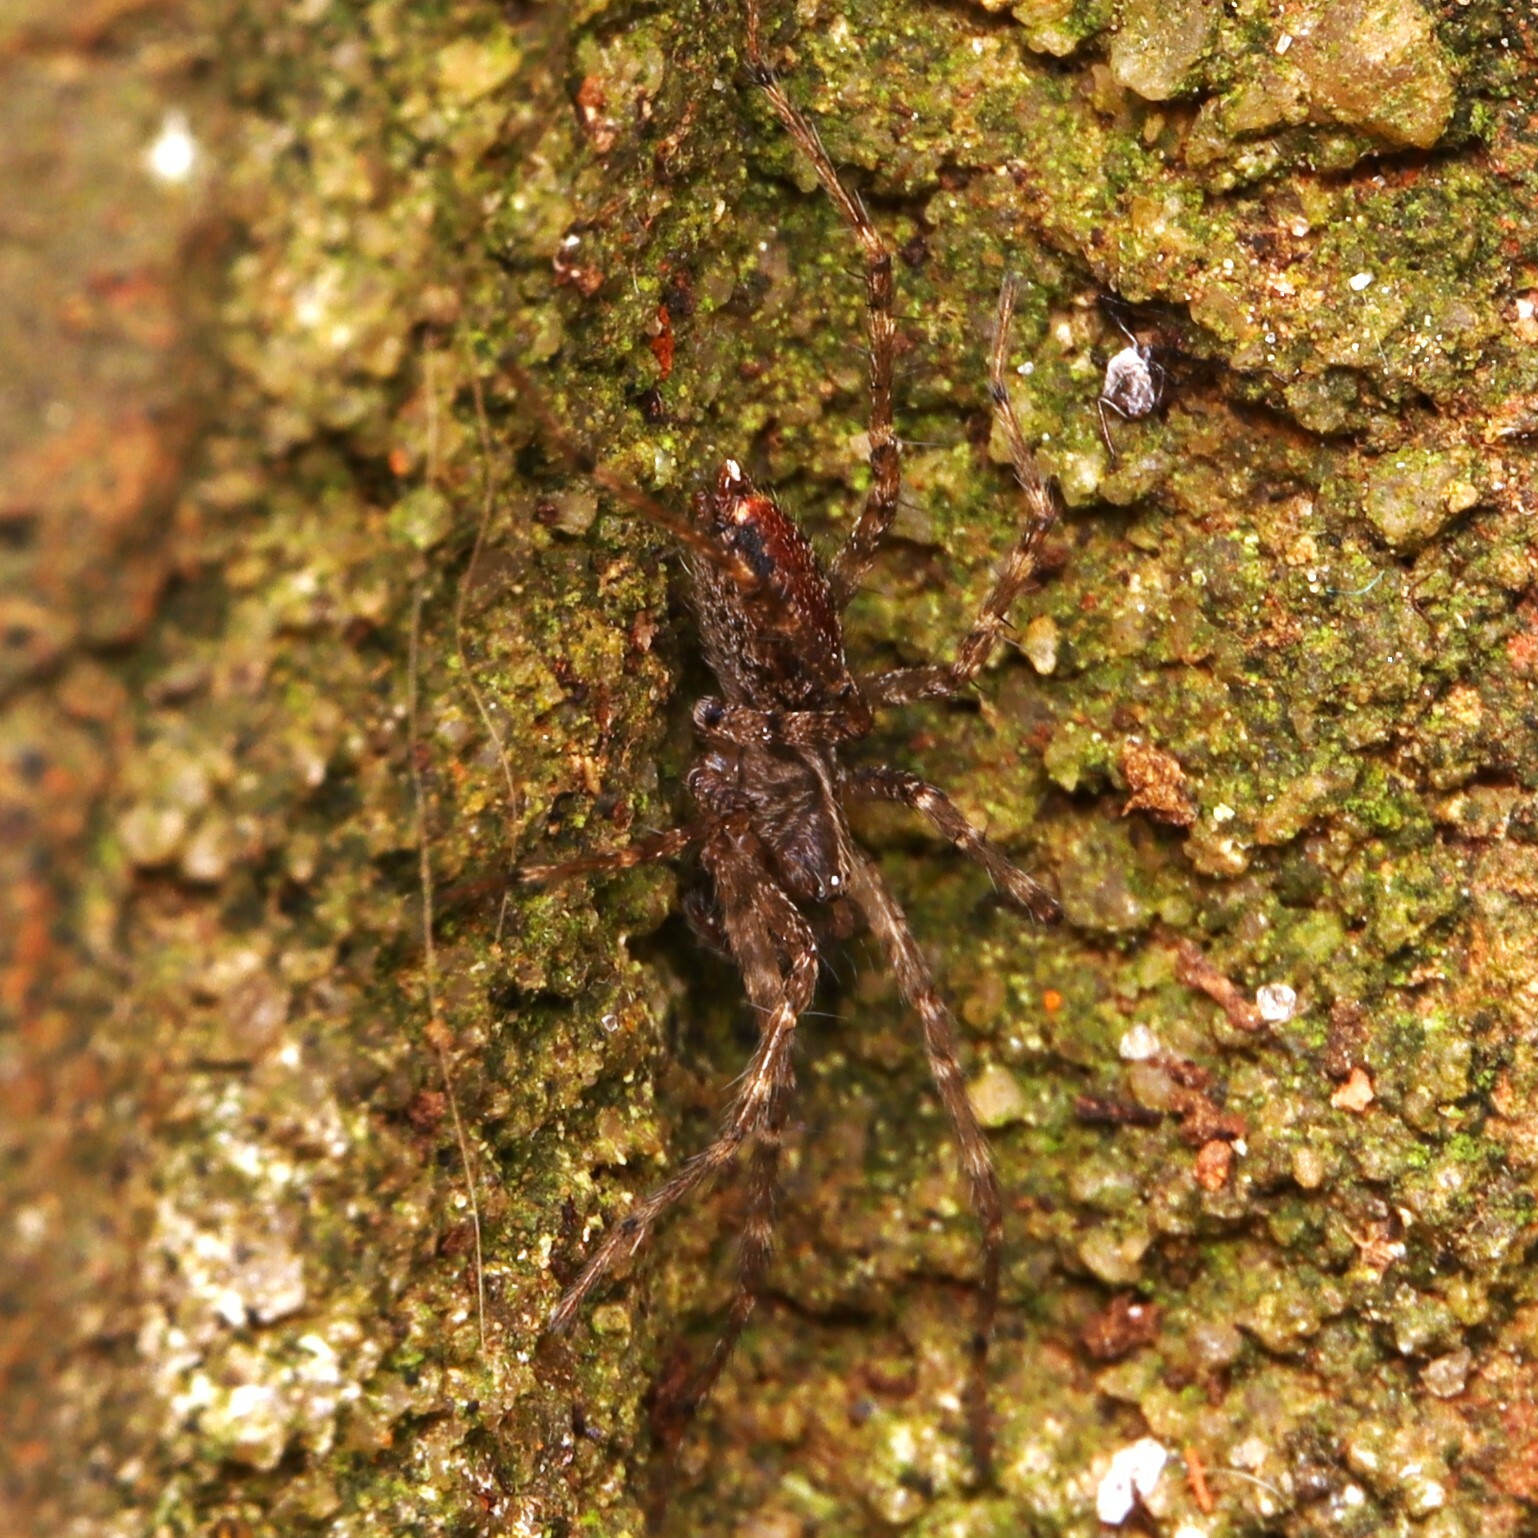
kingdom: Animalia
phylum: Arthropoda
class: Arachnida
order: Araneae
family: Agelenidae
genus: Barronopsis
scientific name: Barronopsis
